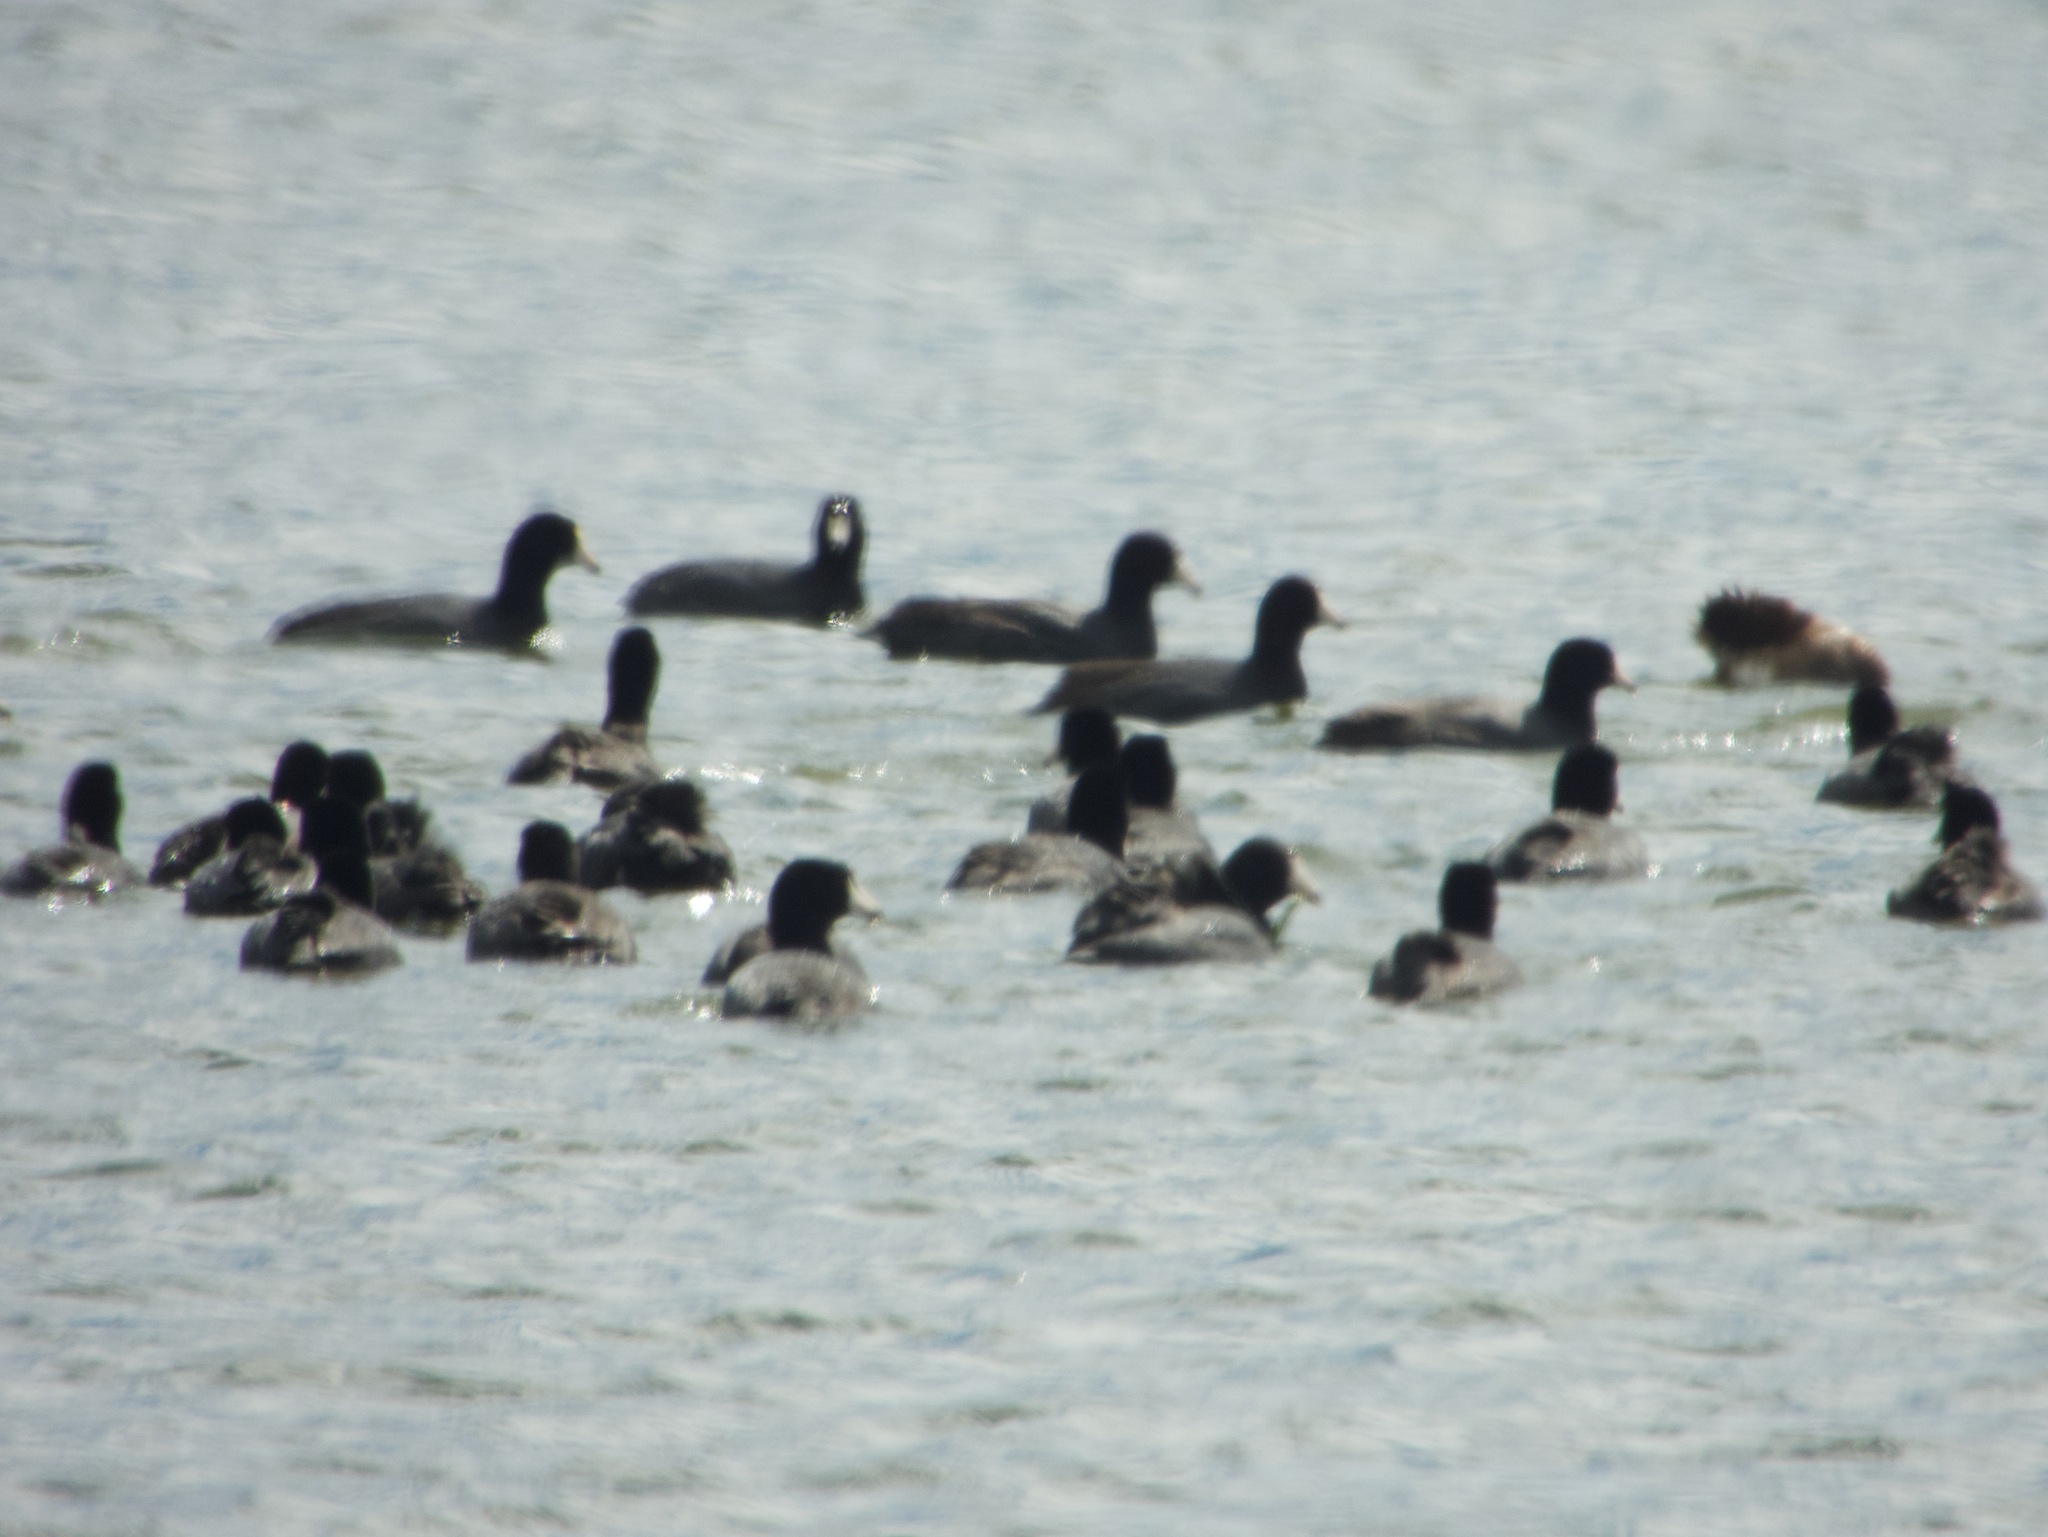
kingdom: Animalia
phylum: Chordata
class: Aves
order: Gruiformes
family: Rallidae
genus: Fulica
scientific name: Fulica americana
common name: American coot
